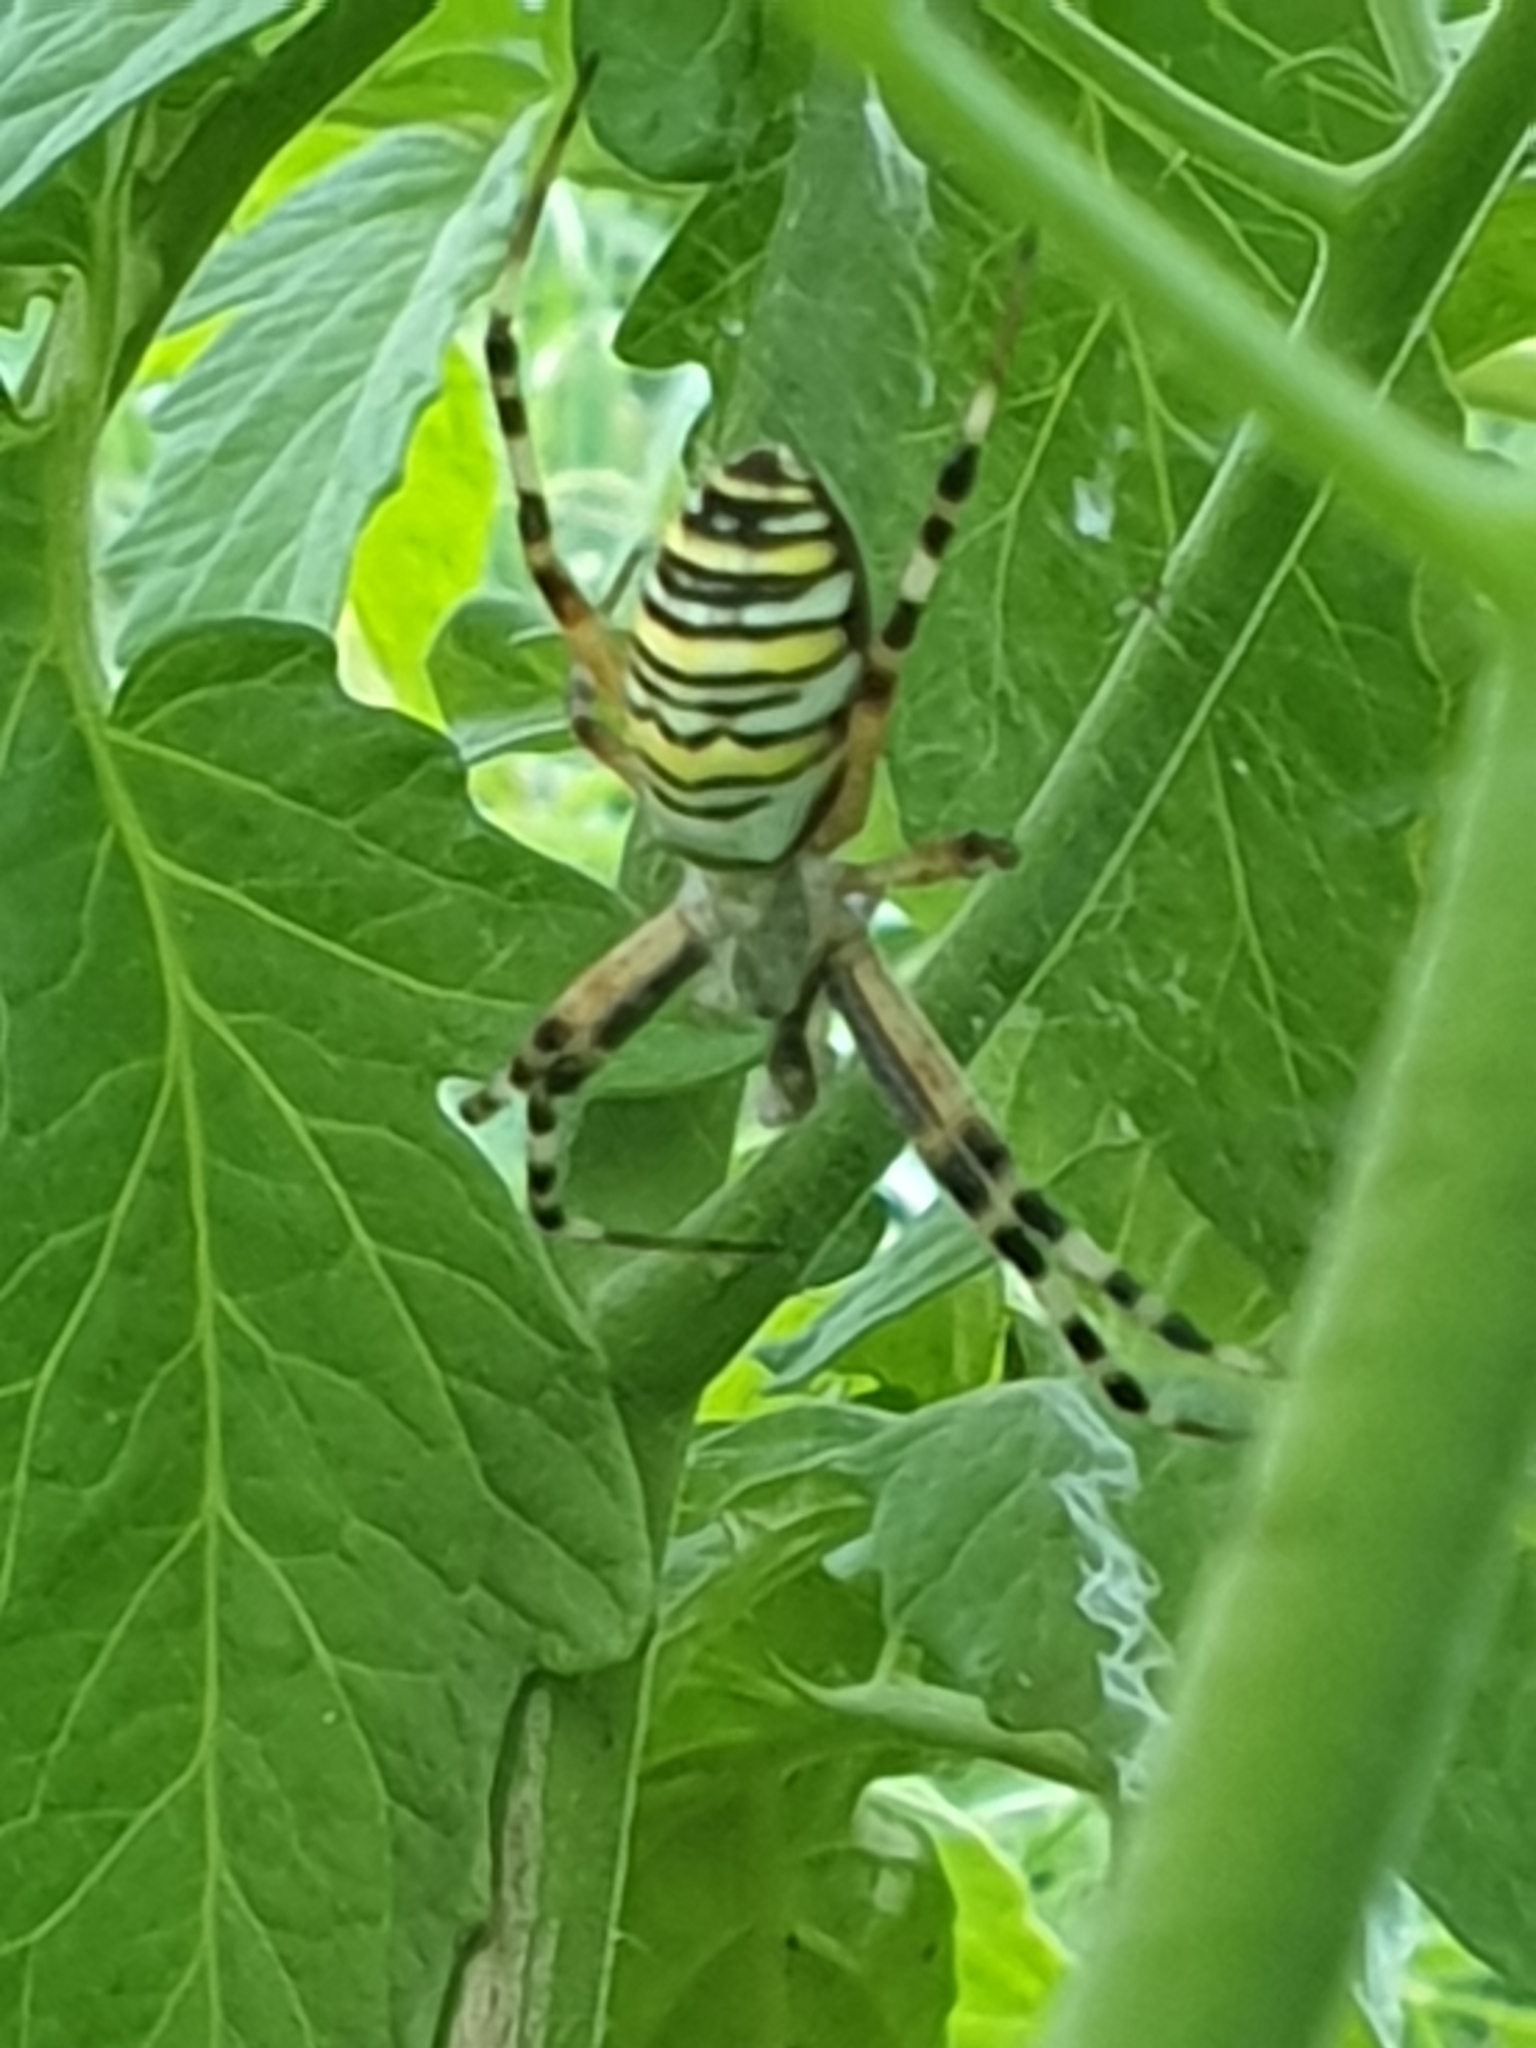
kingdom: Animalia
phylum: Arthropoda
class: Arachnida
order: Araneae
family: Araneidae
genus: Argiope
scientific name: Argiope bruennichi
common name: Wasp spider
